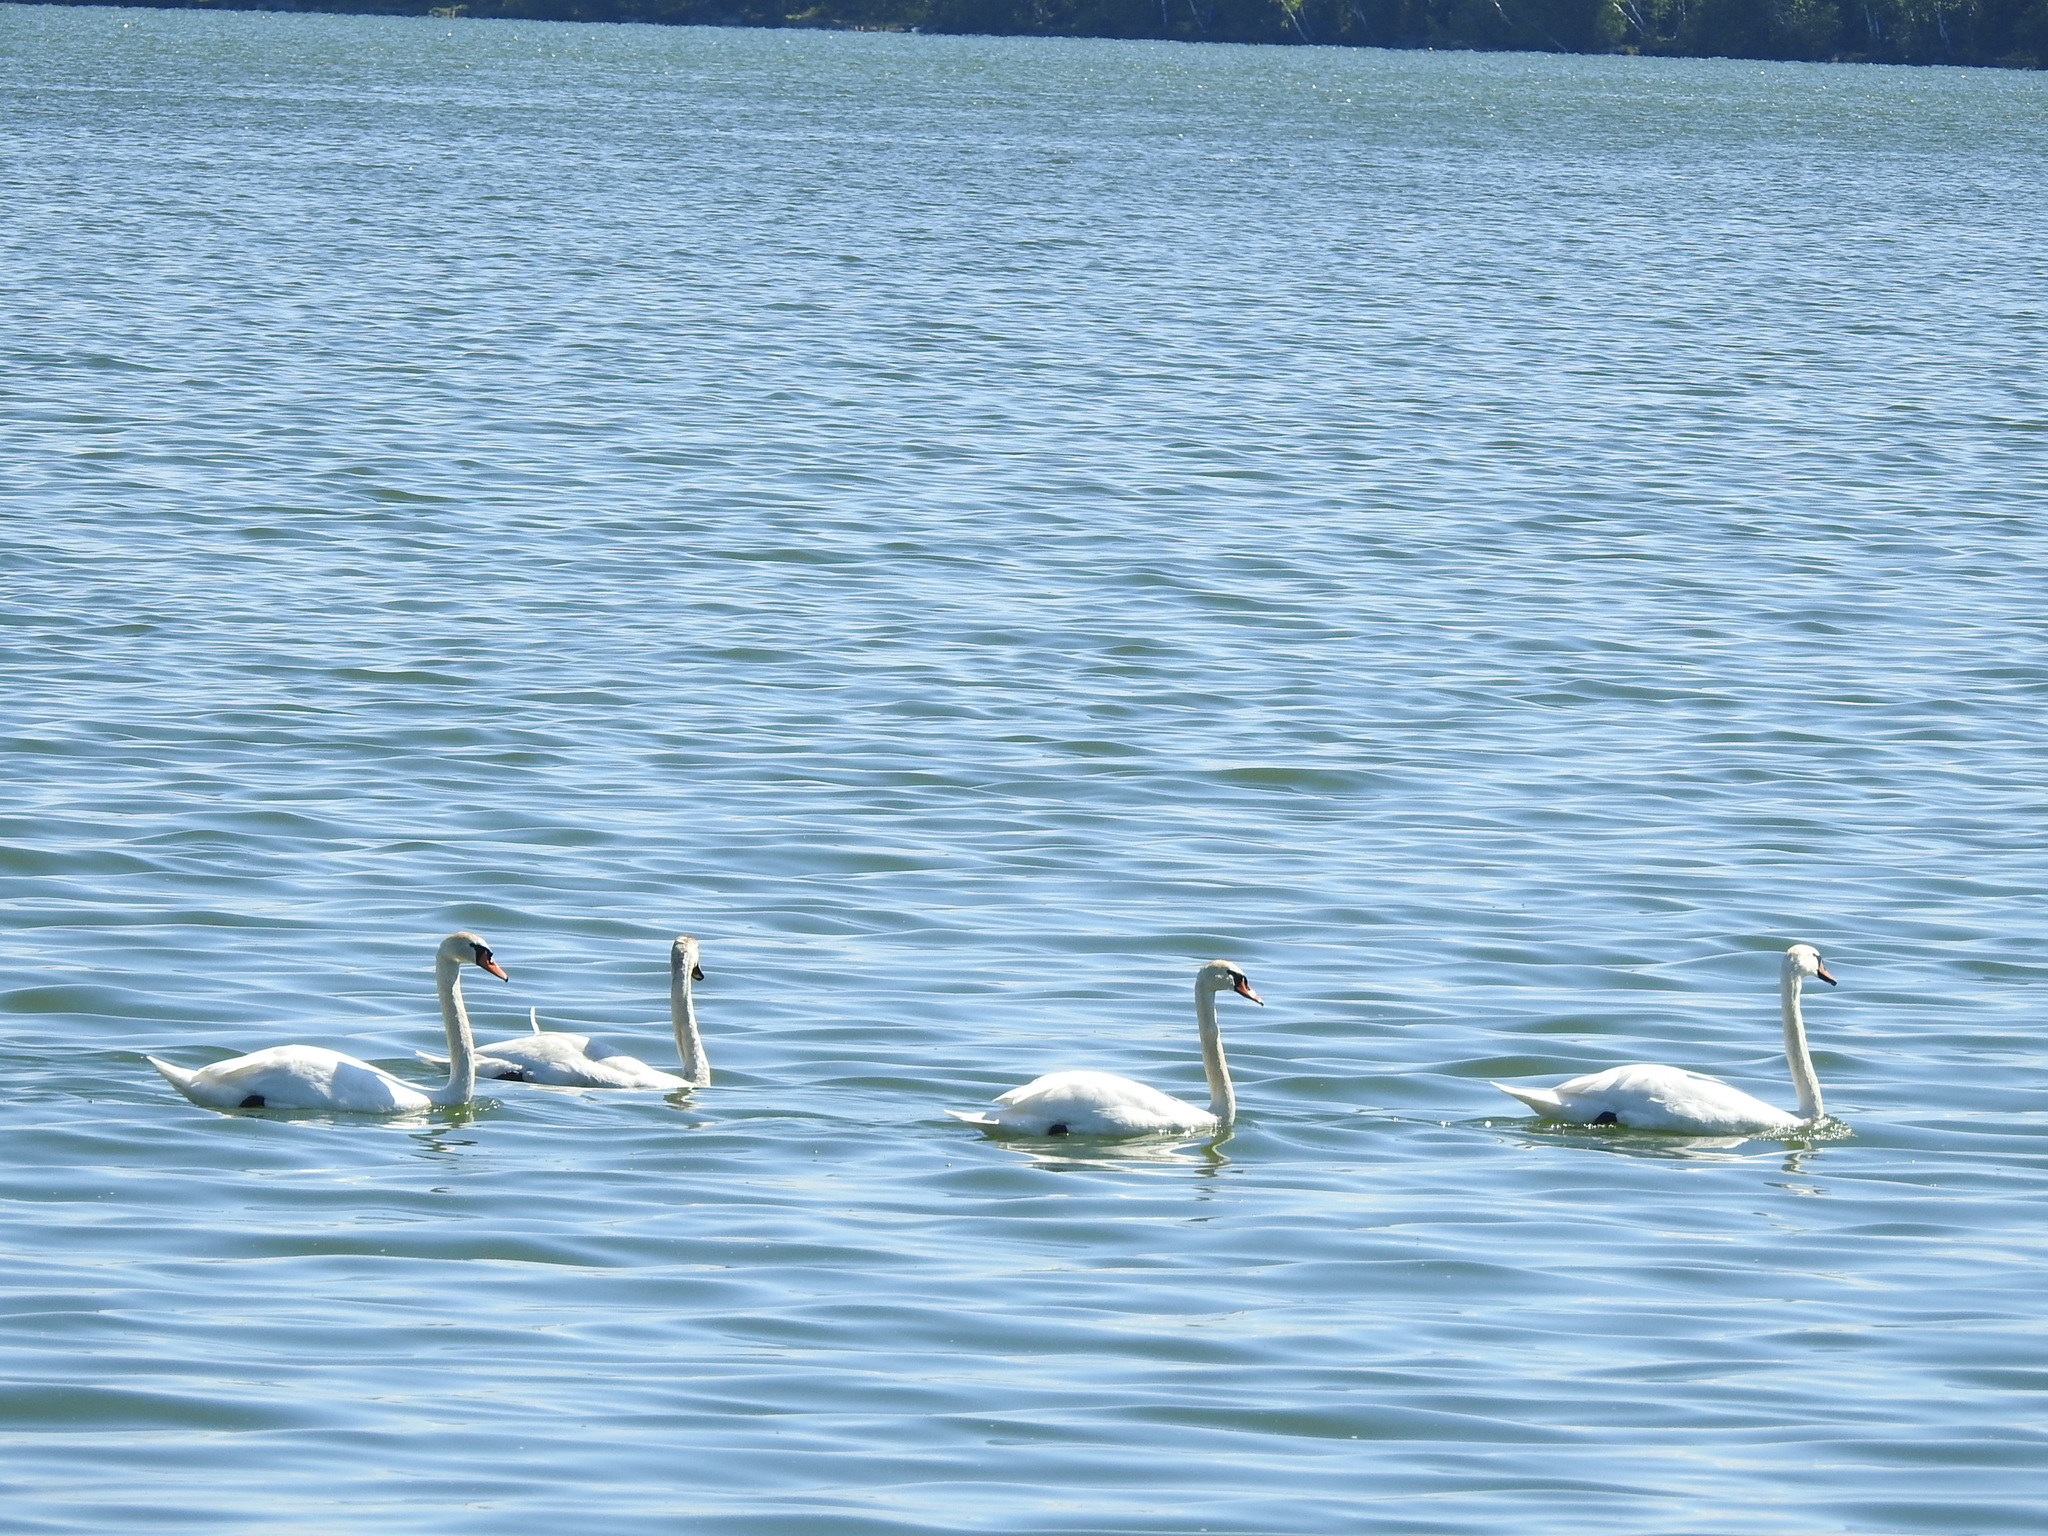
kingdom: Animalia
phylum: Chordata
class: Aves
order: Anseriformes
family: Anatidae
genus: Cygnus
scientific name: Cygnus olor
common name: Mute swan
